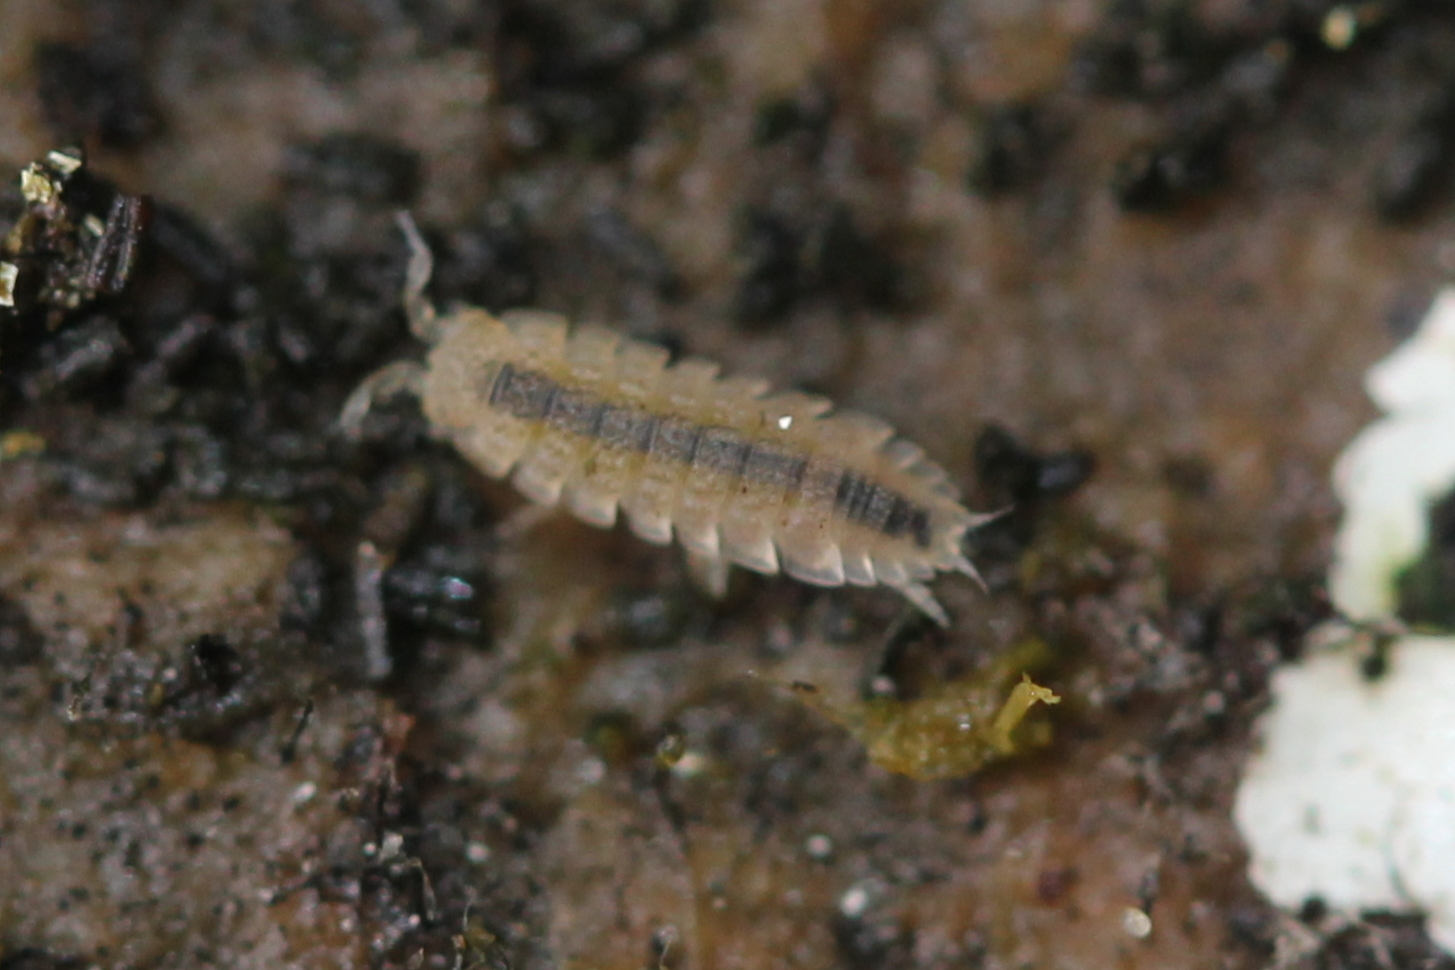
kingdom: Animalia
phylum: Arthropoda
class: Malacostraca
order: Isopoda
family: Trichoniscidae
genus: Haplophthalmus
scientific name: Haplophthalmus danicus
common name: Pillbug
